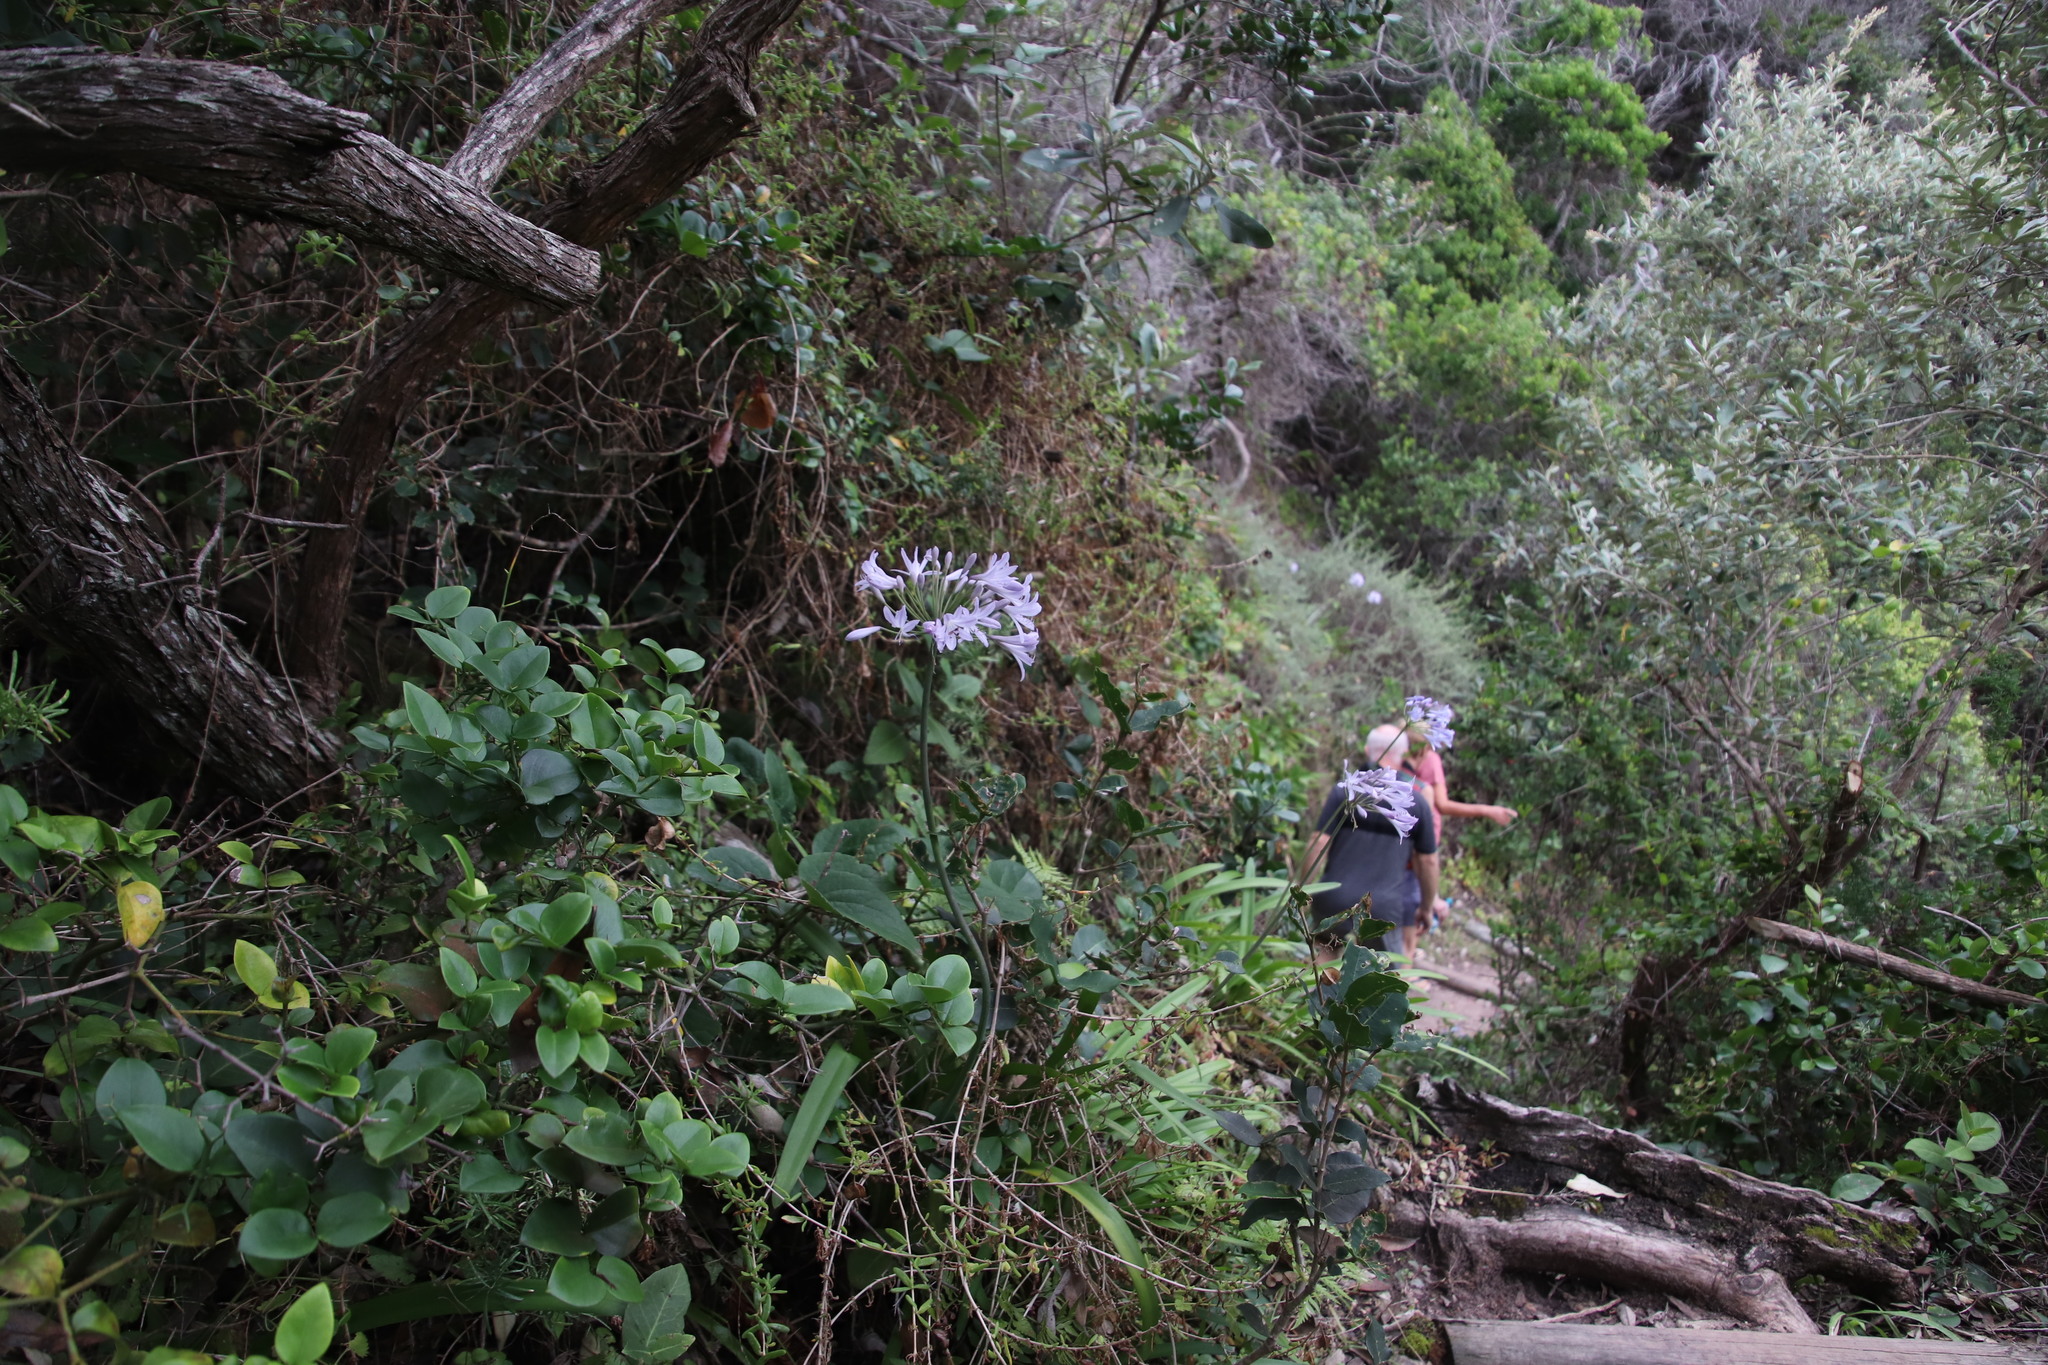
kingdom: Plantae
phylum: Tracheophyta
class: Liliopsida
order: Asparagales
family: Amaryllidaceae
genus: Agapanthus
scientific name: Agapanthus praecox
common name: African-lily
